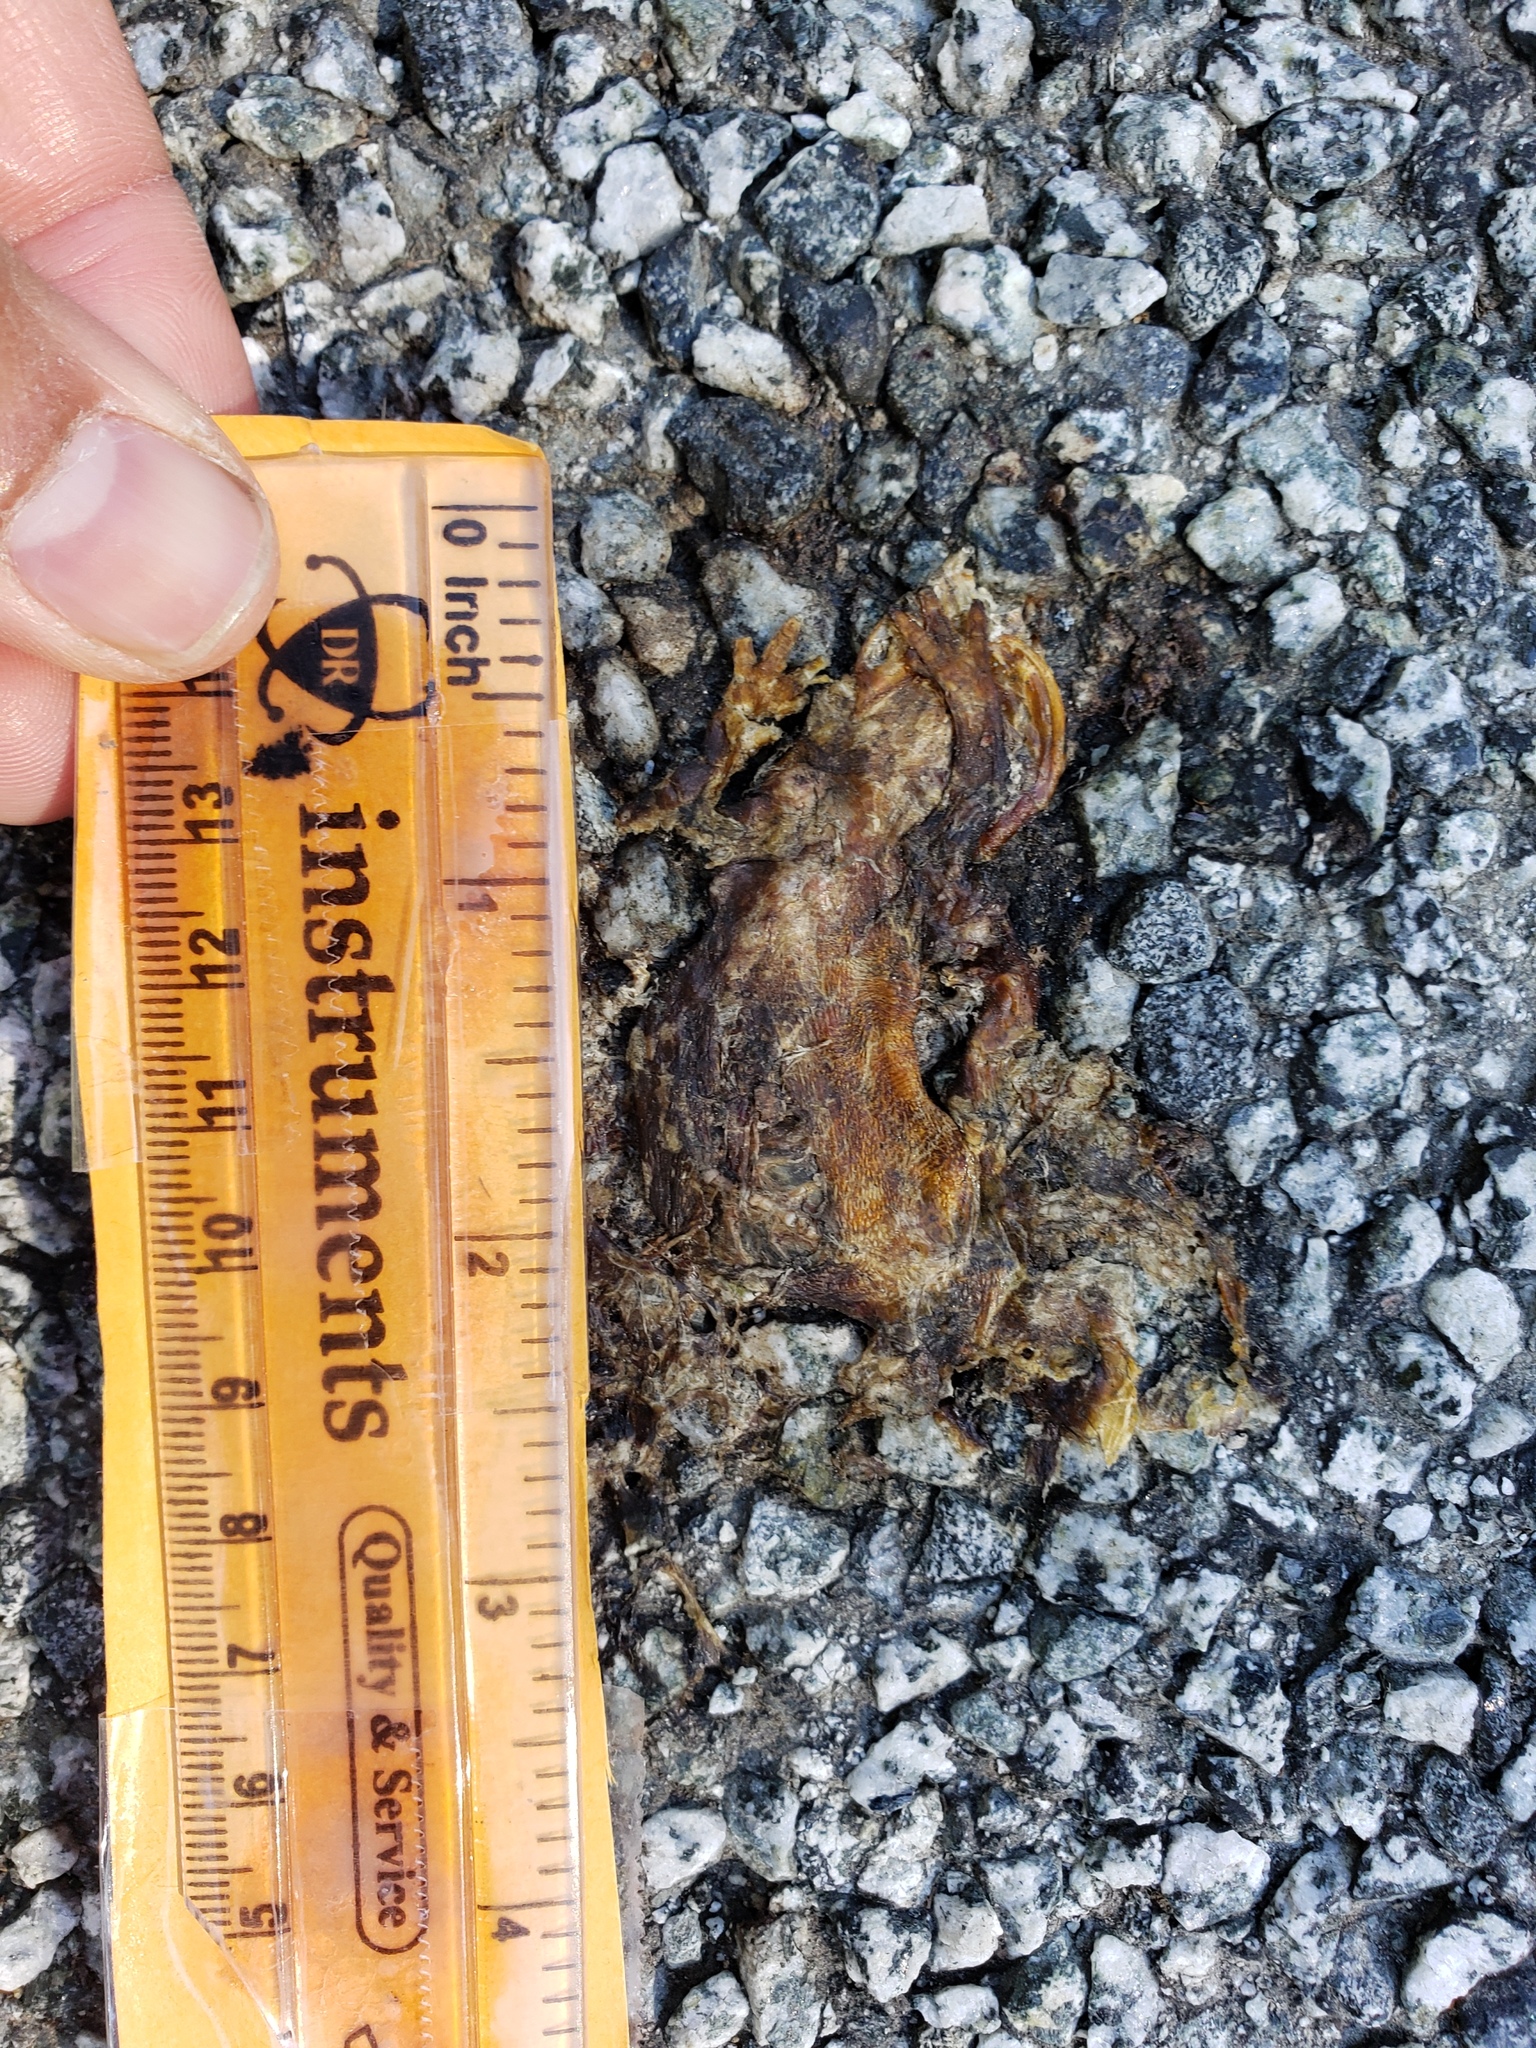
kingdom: Animalia
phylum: Chordata
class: Amphibia
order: Caudata
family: Salamandridae
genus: Taricha
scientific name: Taricha
